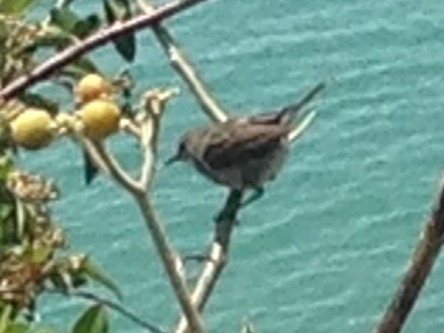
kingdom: Animalia
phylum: Chordata
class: Aves
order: Passeriformes
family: Acanthizidae
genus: Gerygone
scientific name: Gerygone igata
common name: Grey gerygone
